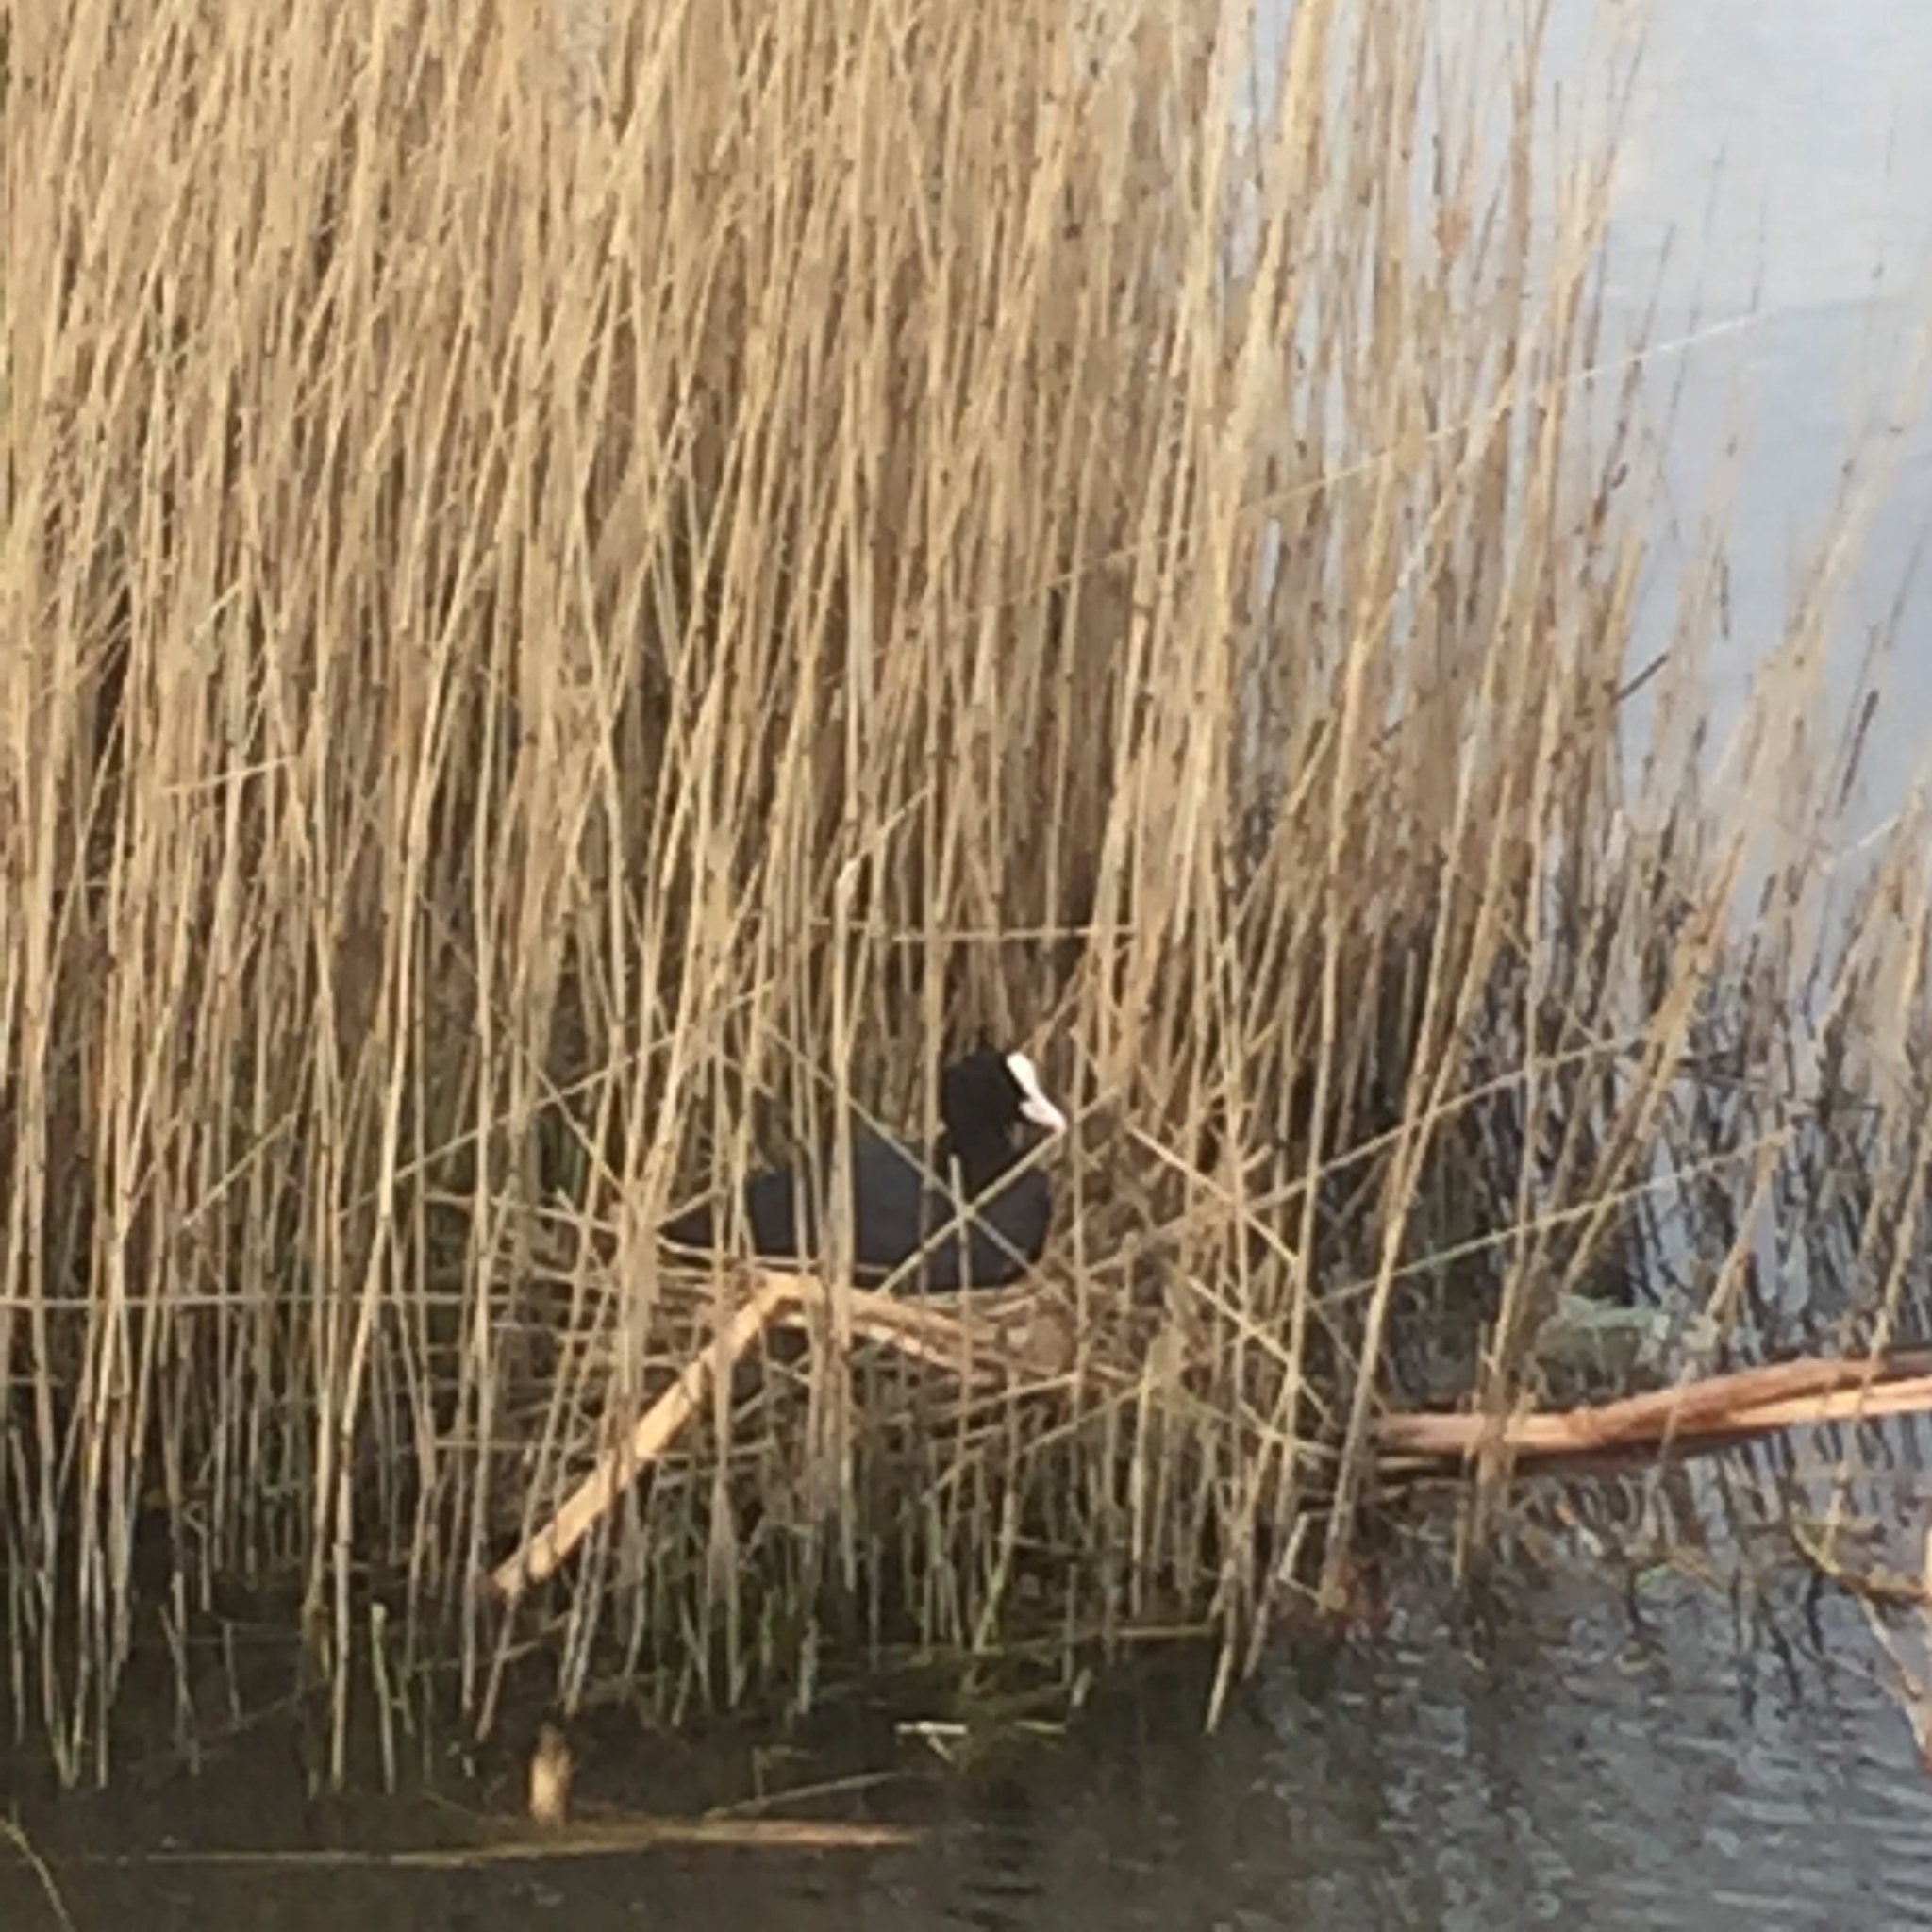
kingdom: Animalia
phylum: Chordata
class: Aves
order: Gruiformes
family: Rallidae
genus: Fulica
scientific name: Fulica atra
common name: Eurasian coot
